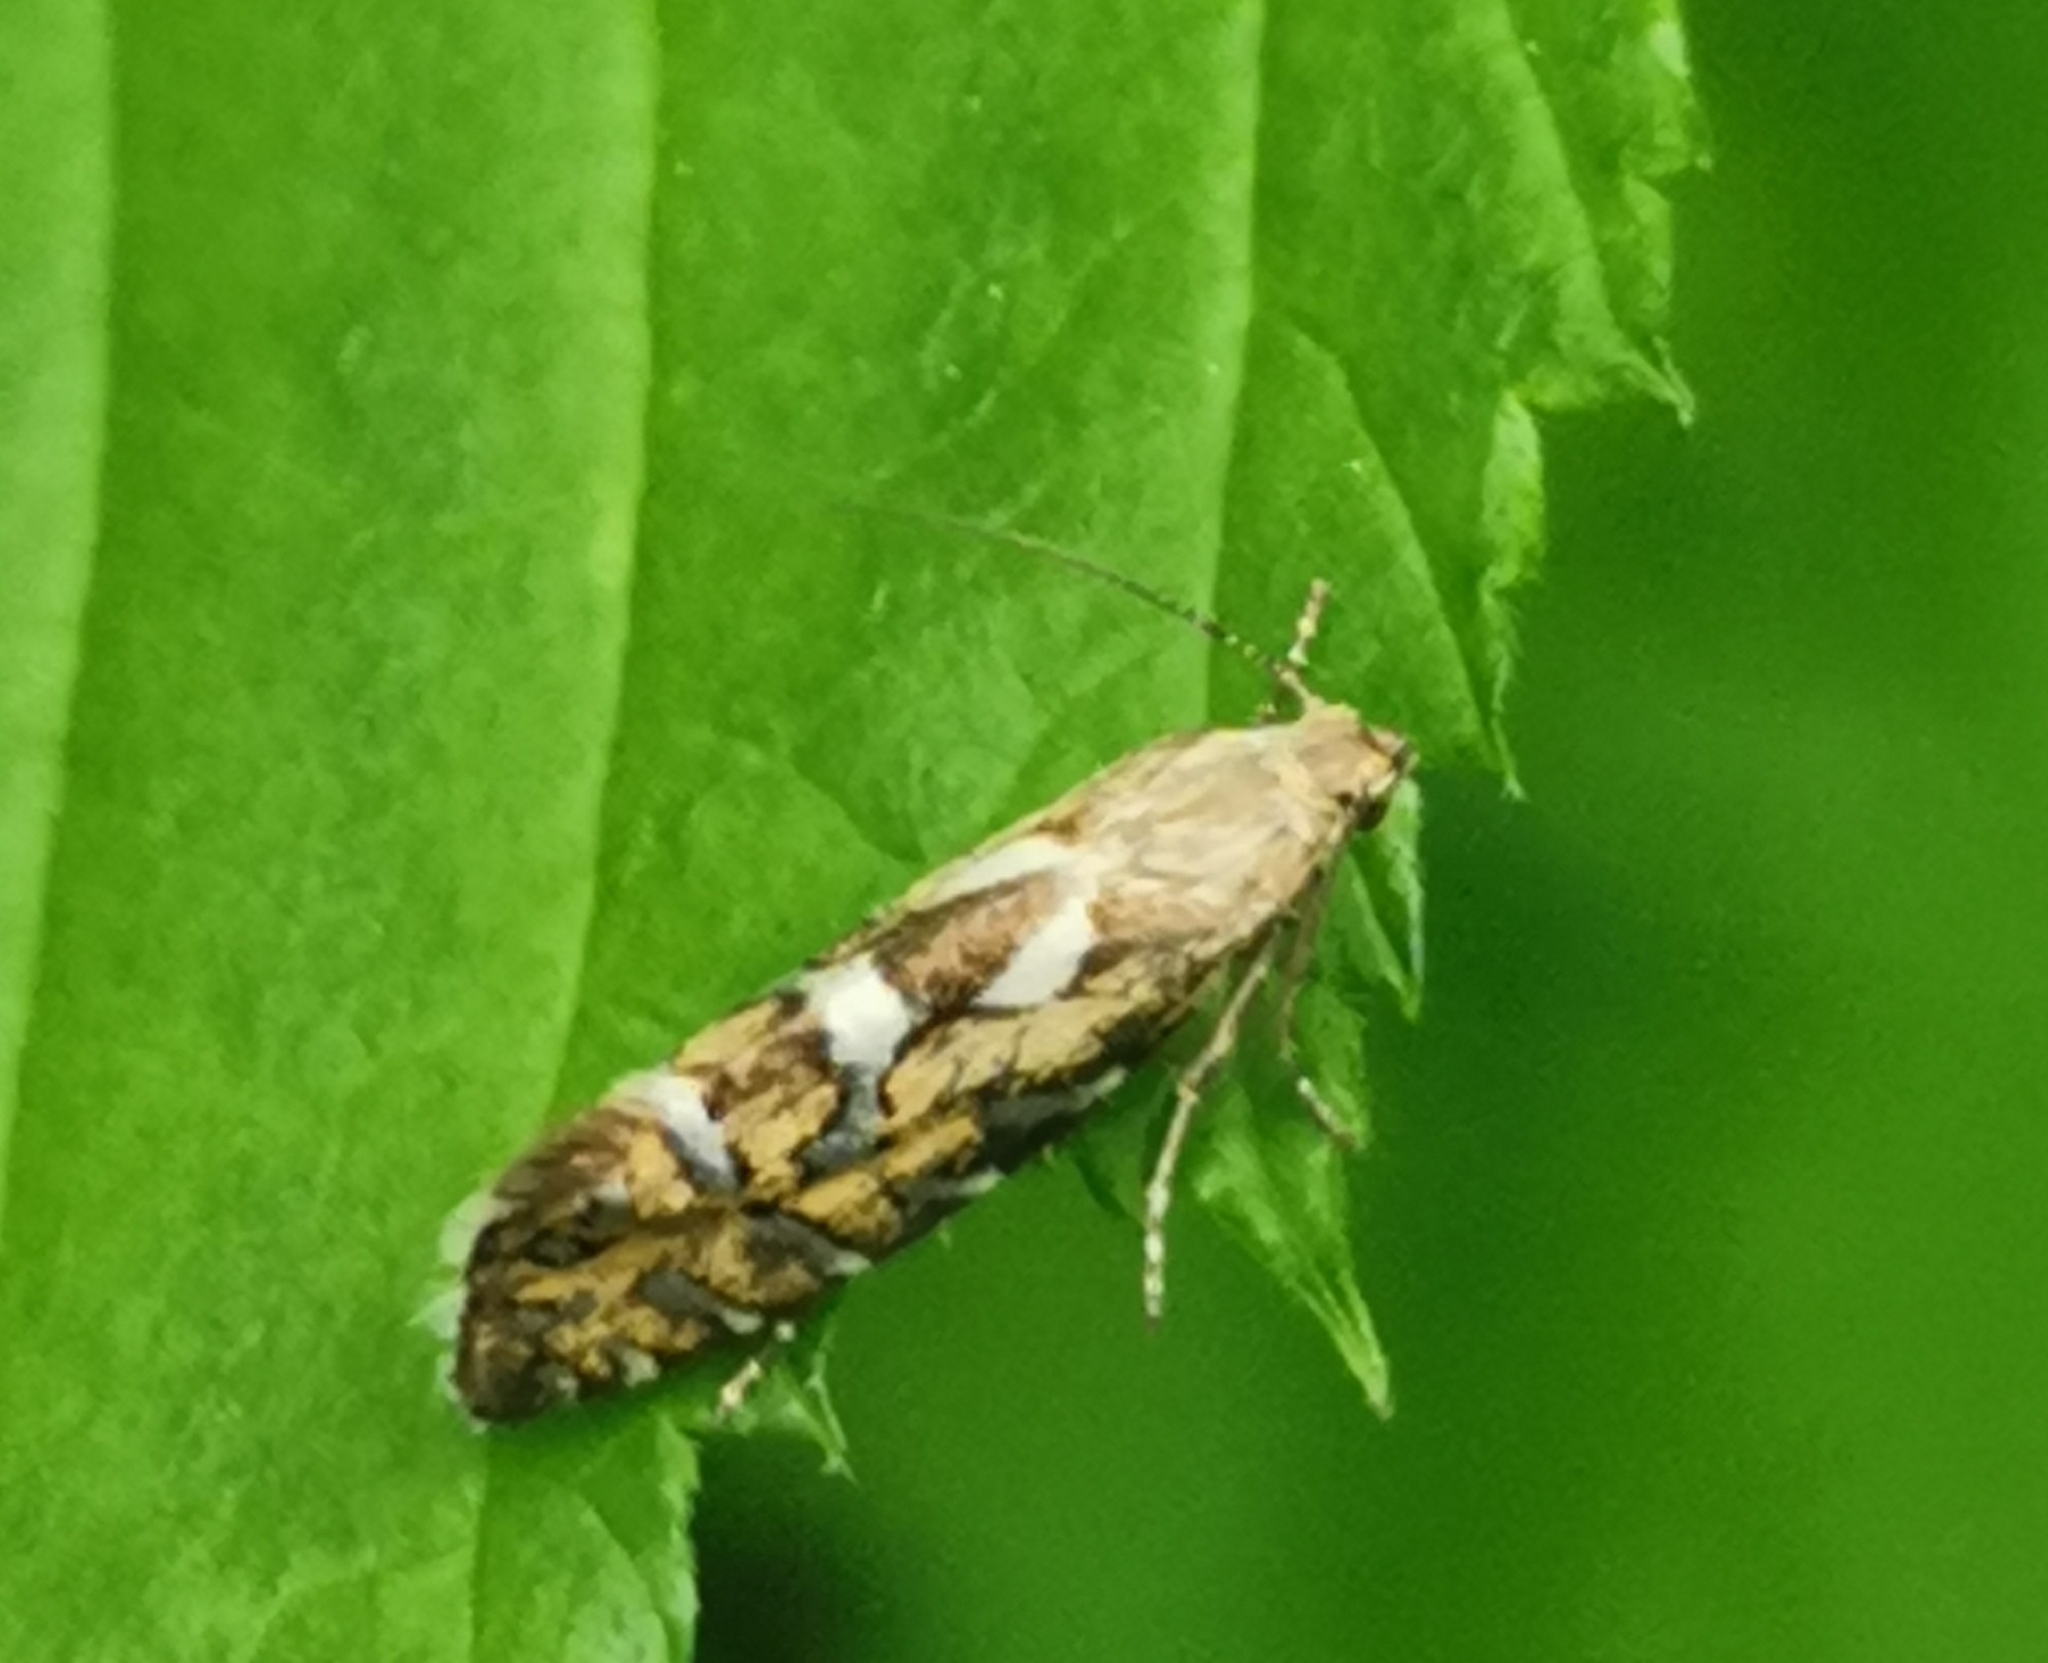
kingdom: Animalia
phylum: Arthropoda
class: Insecta
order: Lepidoptera
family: Glyphipterigidae
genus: Glyphipterix
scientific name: Glyphipterix bergstraesserella
